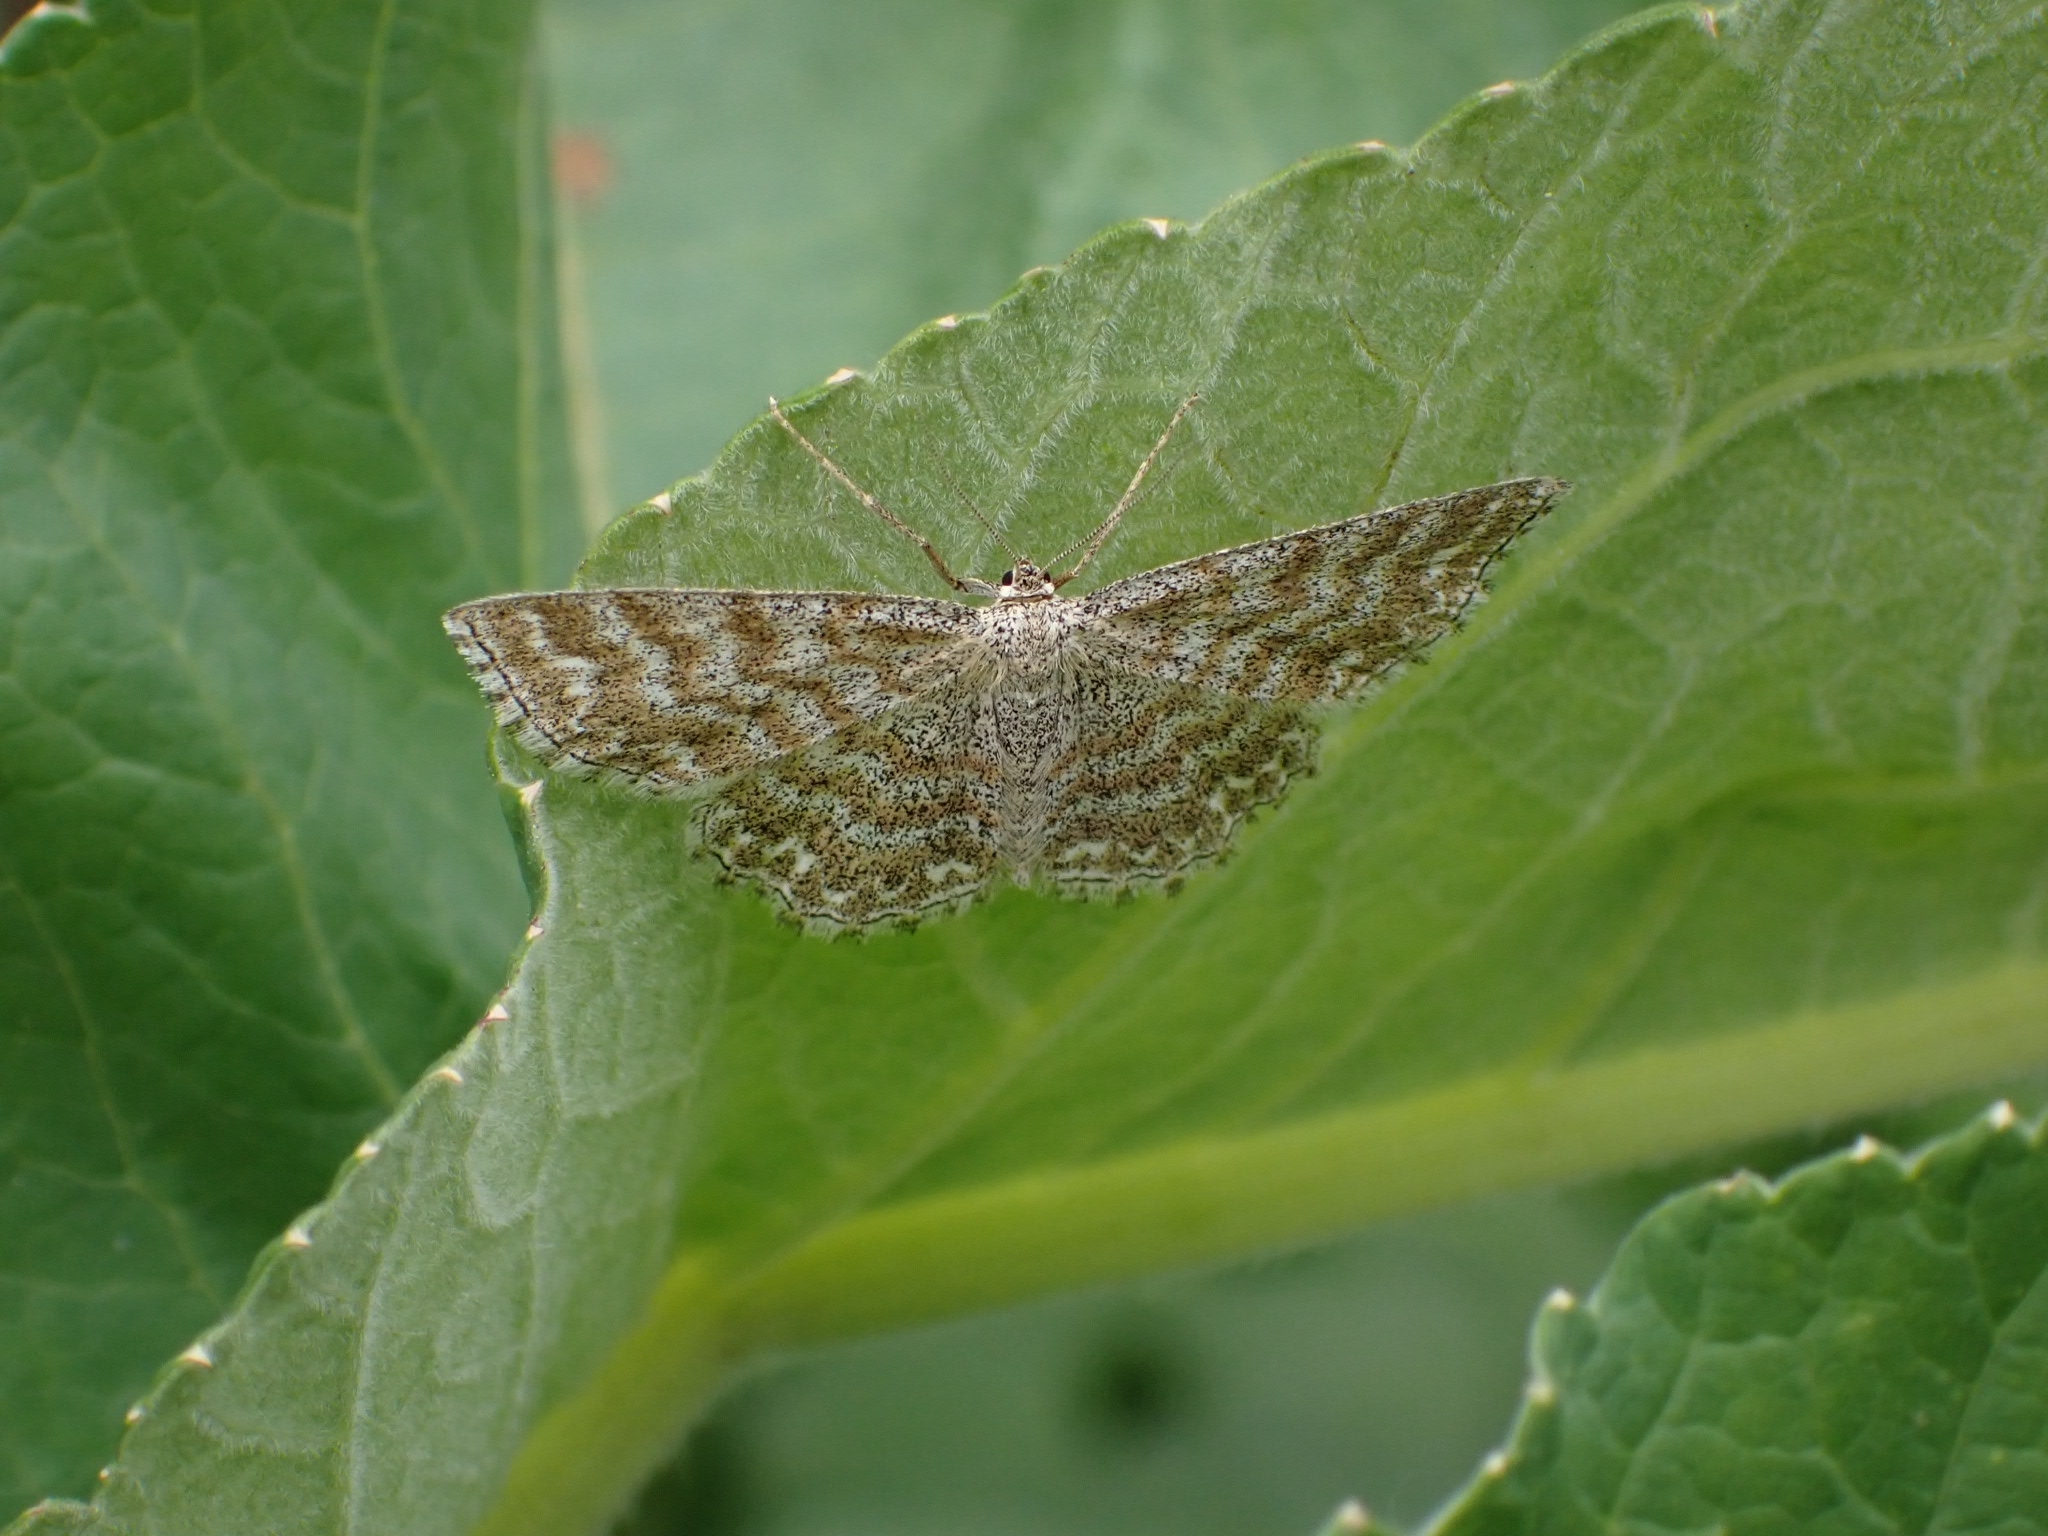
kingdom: Animalia
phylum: Arthropoda
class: Insecta
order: Lepidoptera
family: Geometridae
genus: Scopula
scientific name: Scopula immorata
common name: Lewes wave
